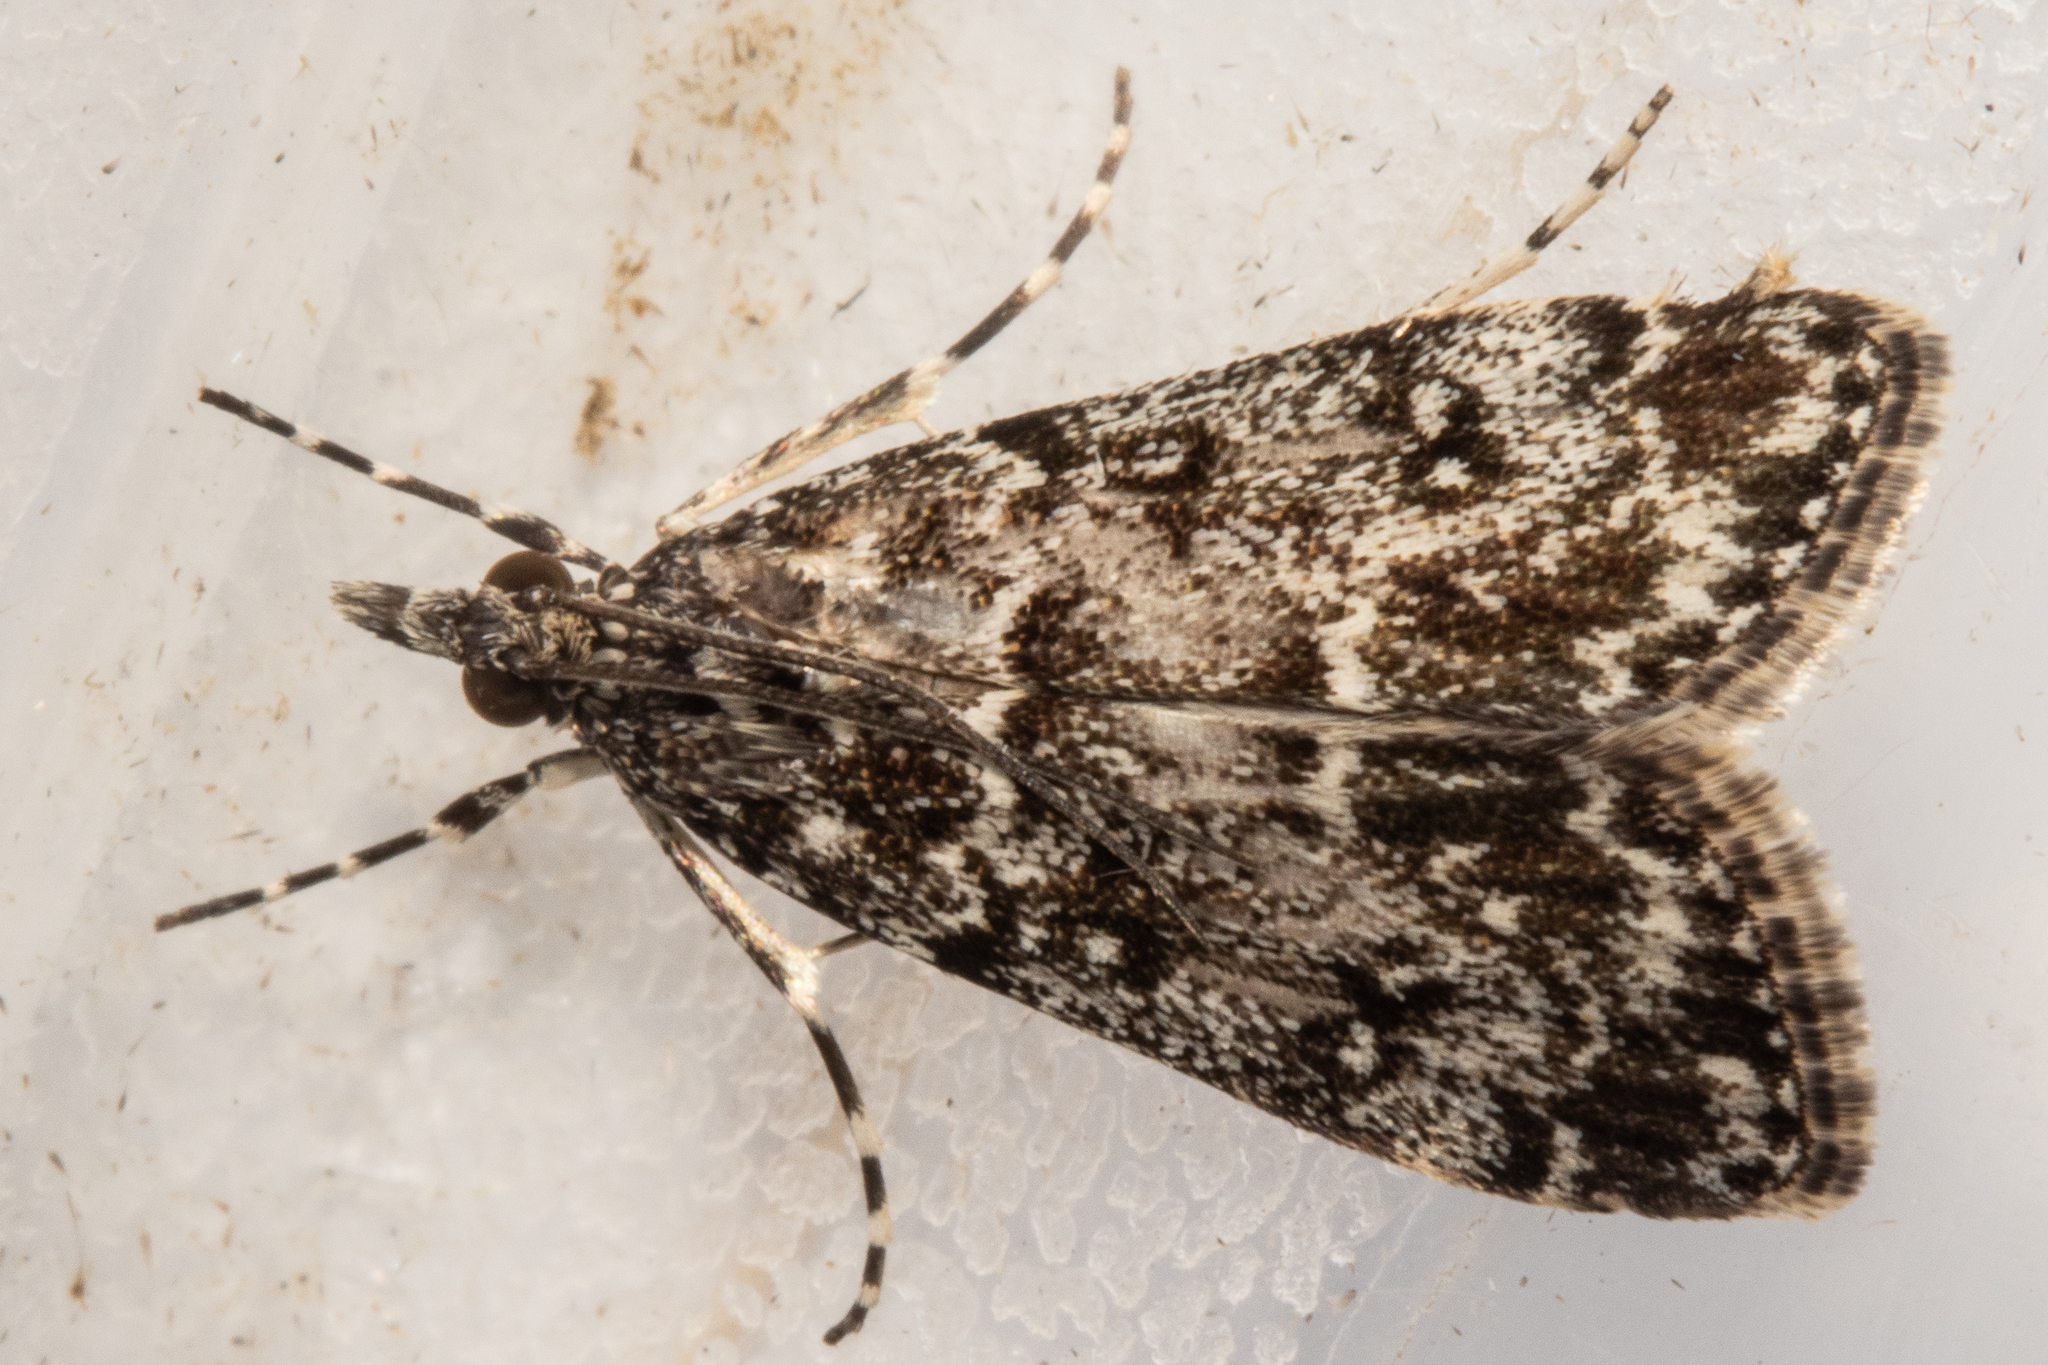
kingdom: Animalia
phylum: Arthropoda
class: Insecta
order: Lepidoptera
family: Crambidae
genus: Eudonia
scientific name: Eudonia philerga
